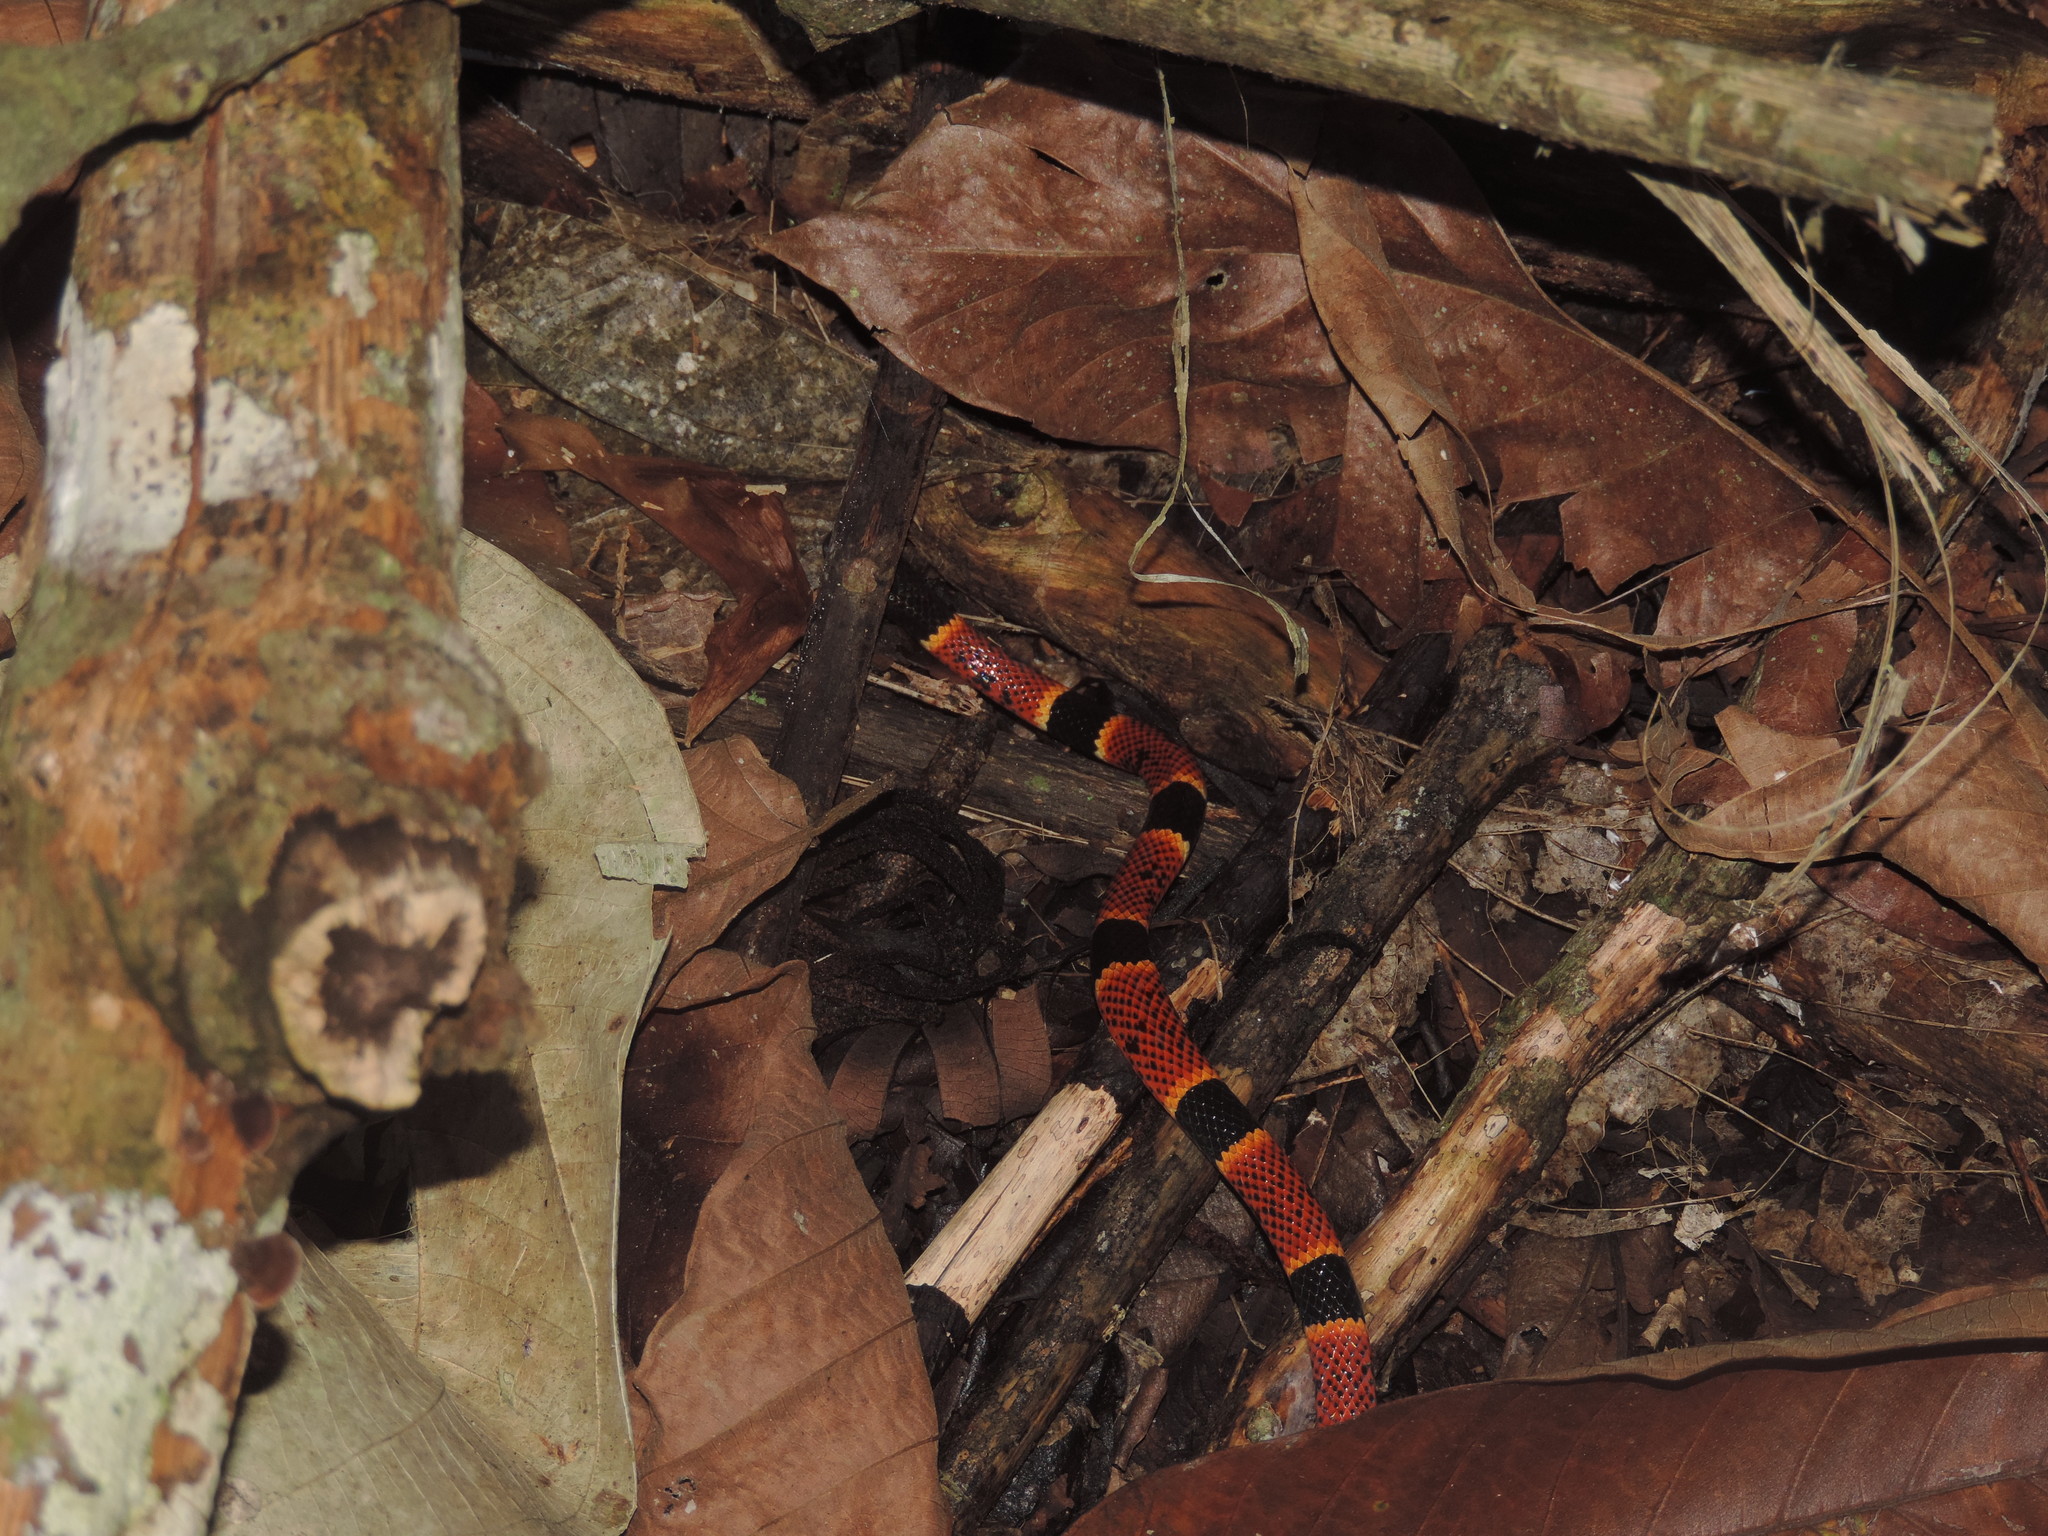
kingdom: Animalia
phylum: Chordata
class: Squamata
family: Elapidae
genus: Micrurus
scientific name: Micrurus nigrocinctus
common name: Babaspul [babaspul]
